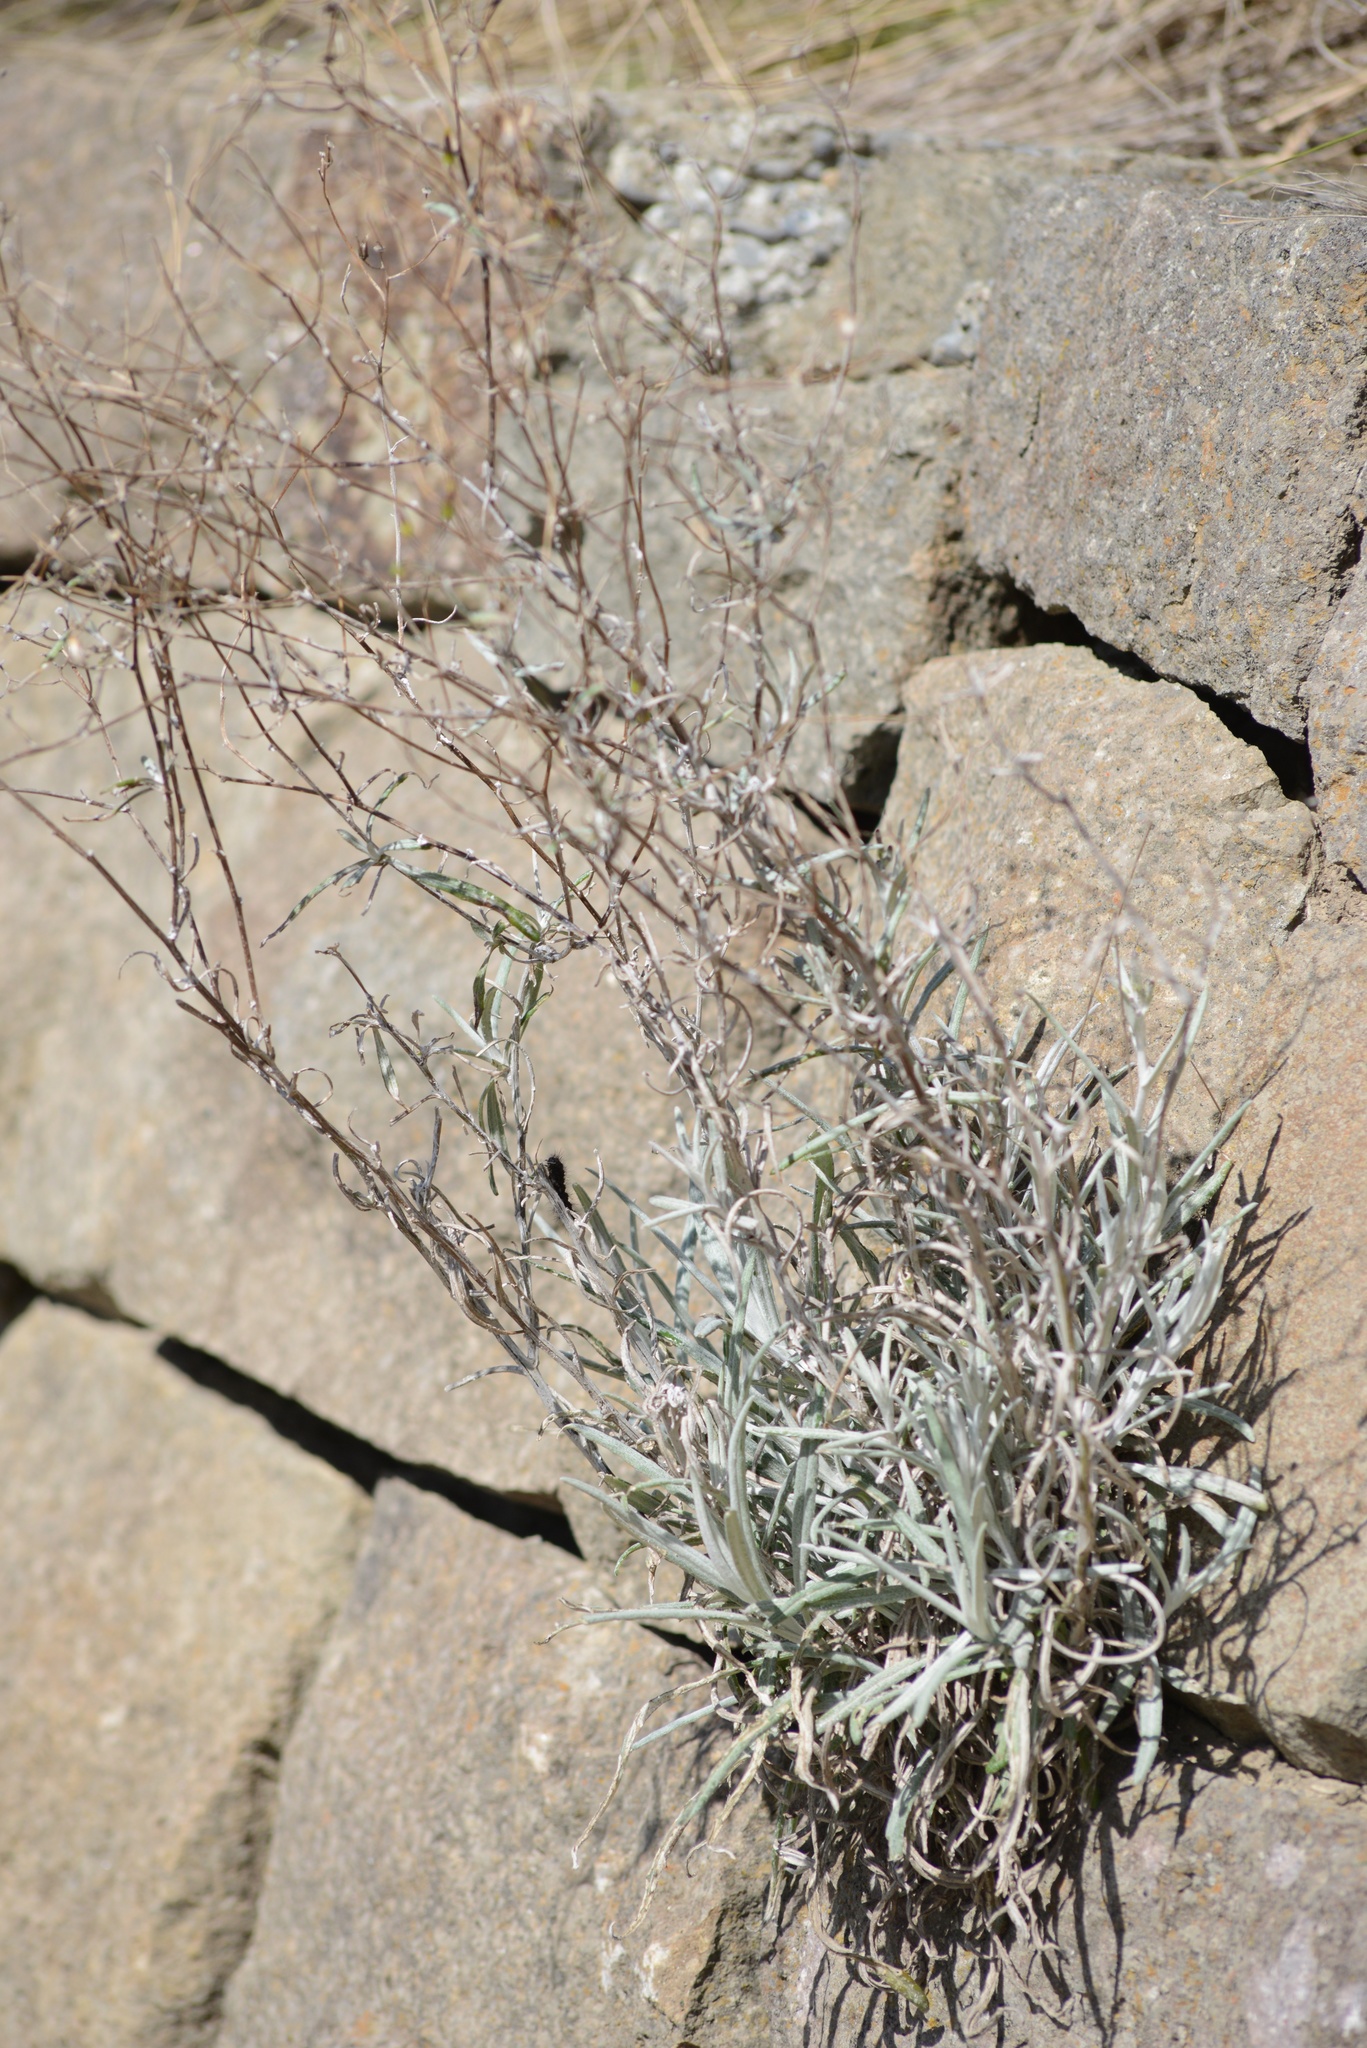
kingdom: Plantae
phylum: Tracheophyta
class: Magnoliopsida
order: Asterales
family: Asteraceae
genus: Senecio
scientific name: Senecio quadridentatus
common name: Cotton fireweed
